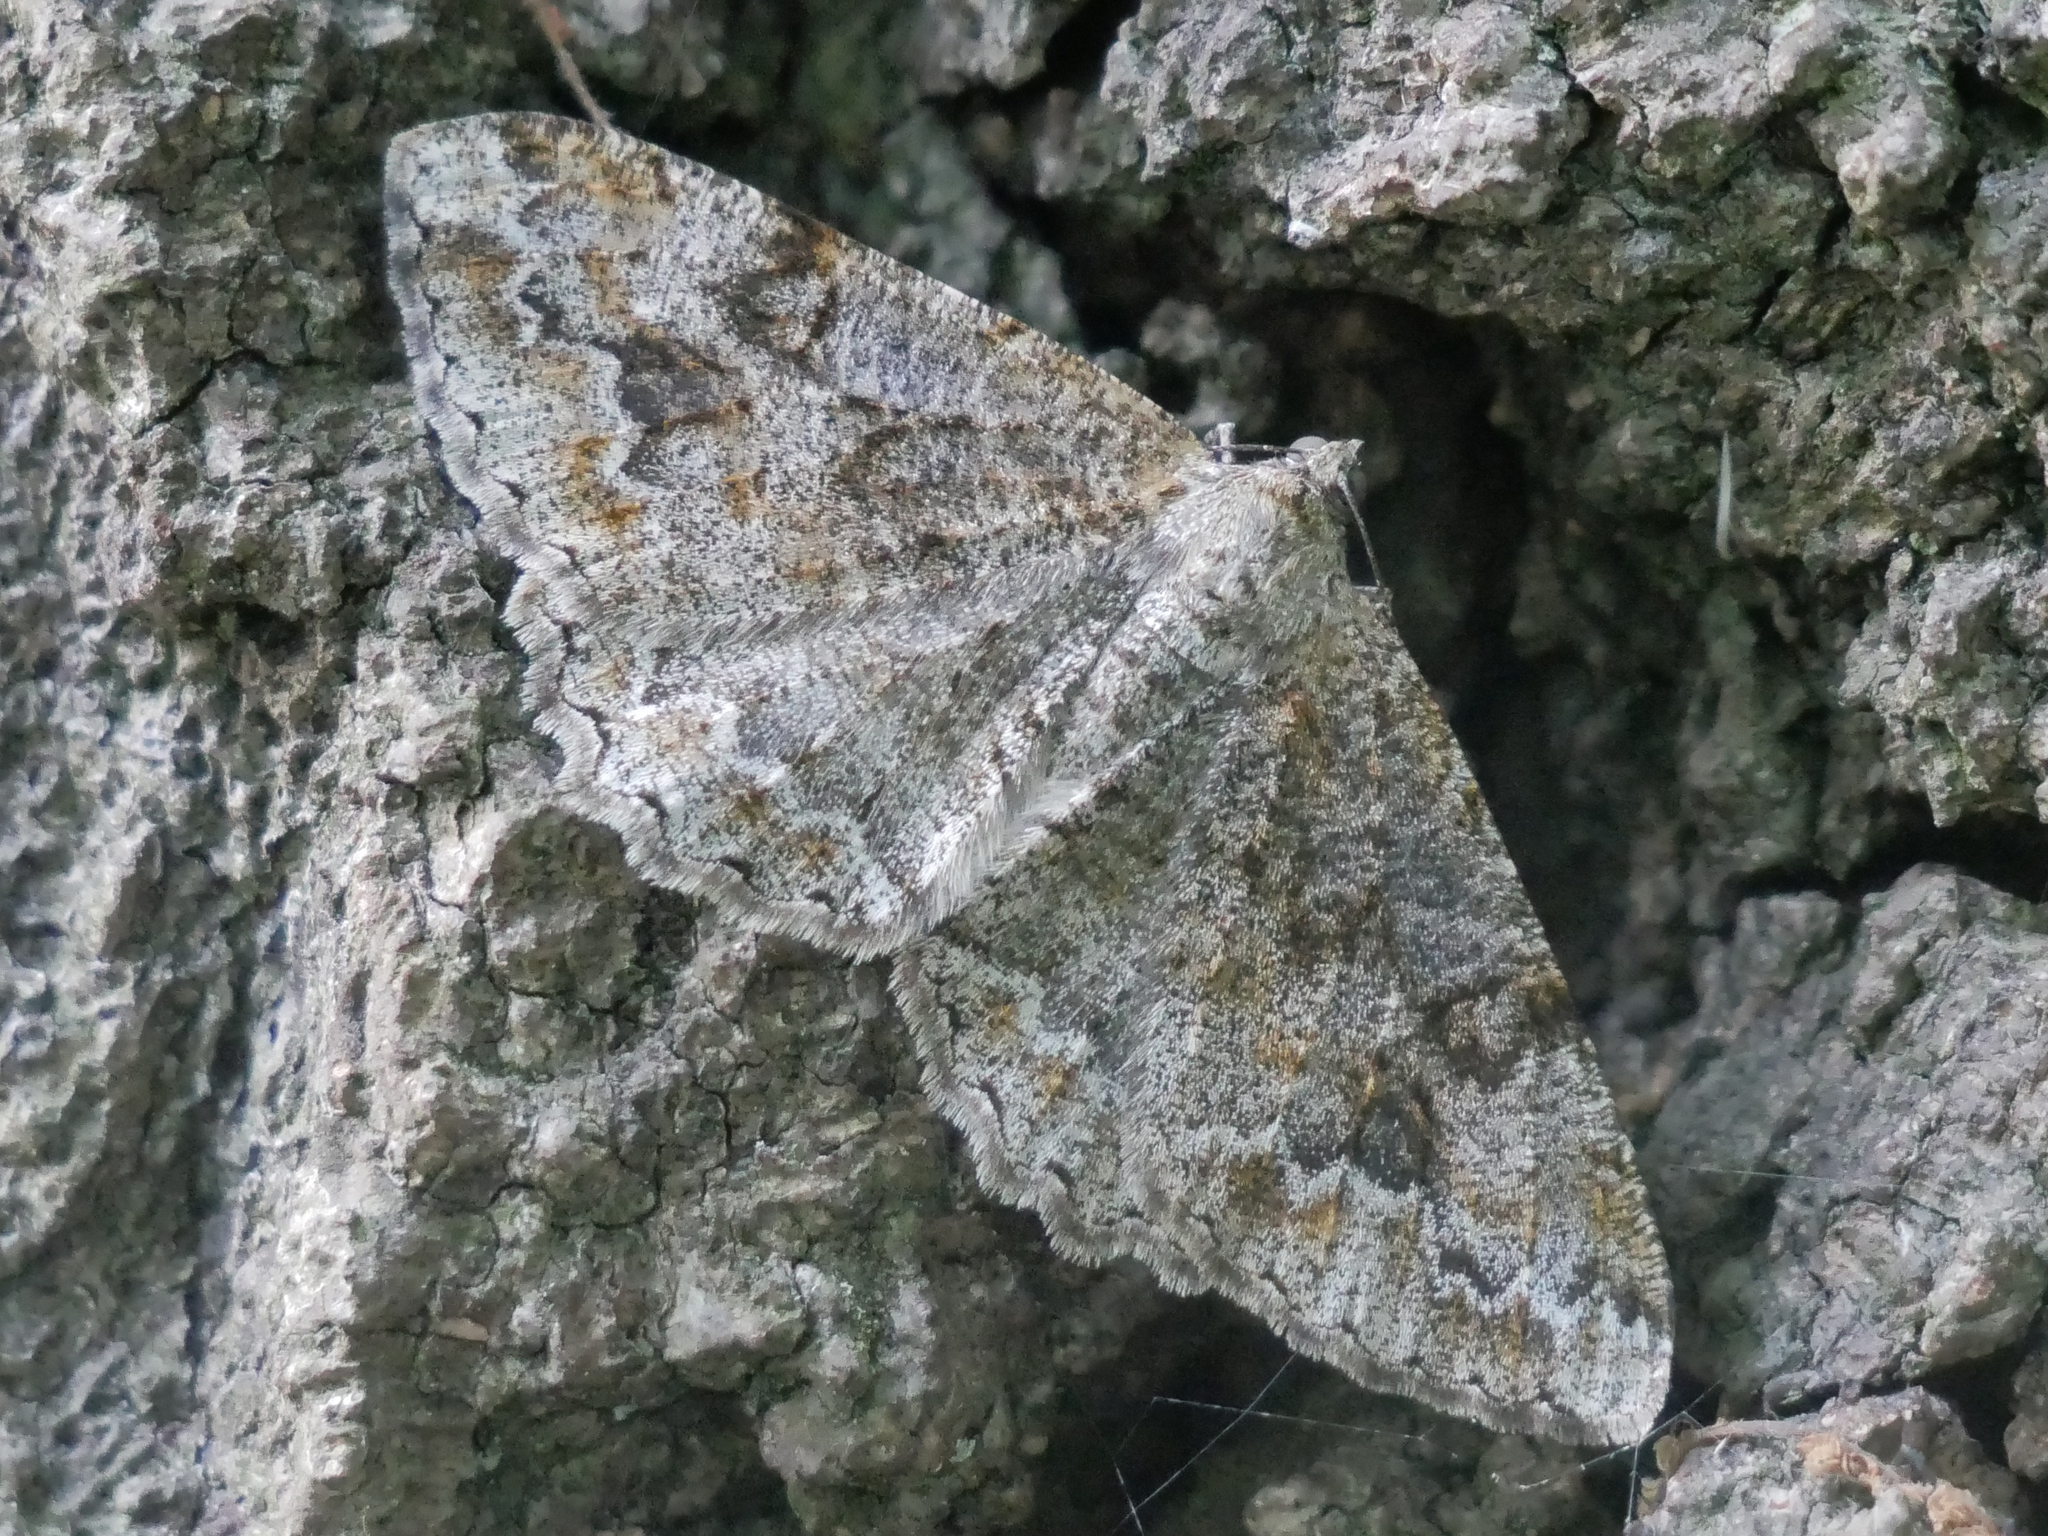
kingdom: Animalia
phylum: Arthropoda
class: Insecta
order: Lepidoptera
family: Geometridae
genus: Alcis
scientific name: Alcis repandata
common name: Mottled beauty
